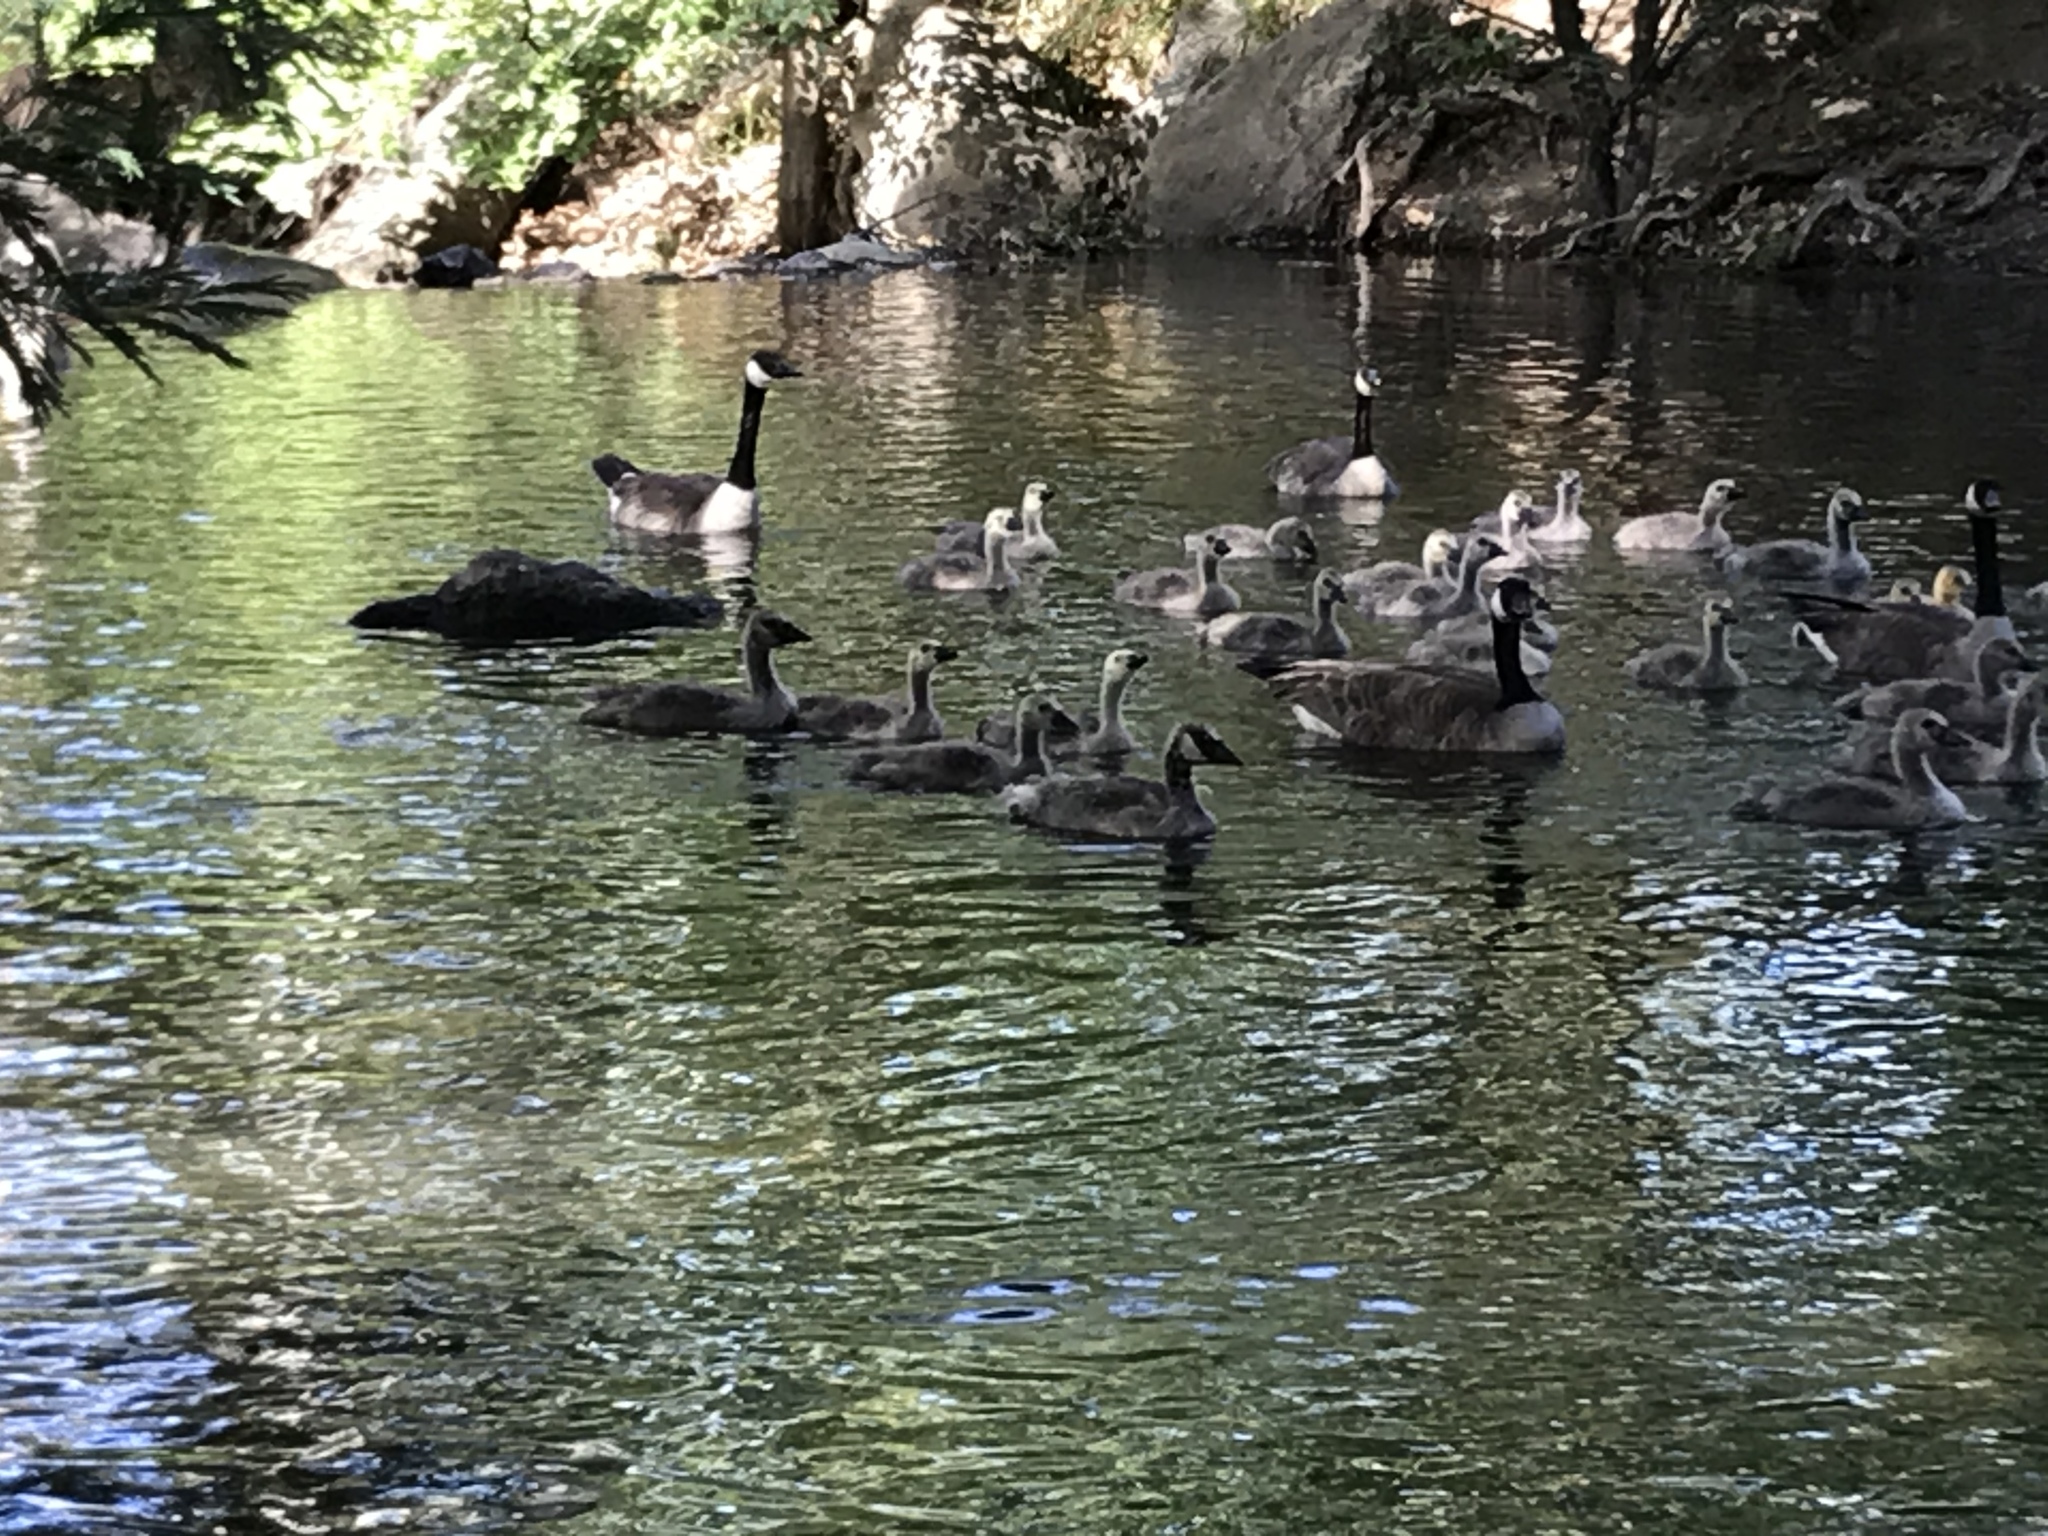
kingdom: Animalia
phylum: Chordata
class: Aves
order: Anseriformes
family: Anatidae
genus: Branta
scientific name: Branta canadensis
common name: Canada goose
